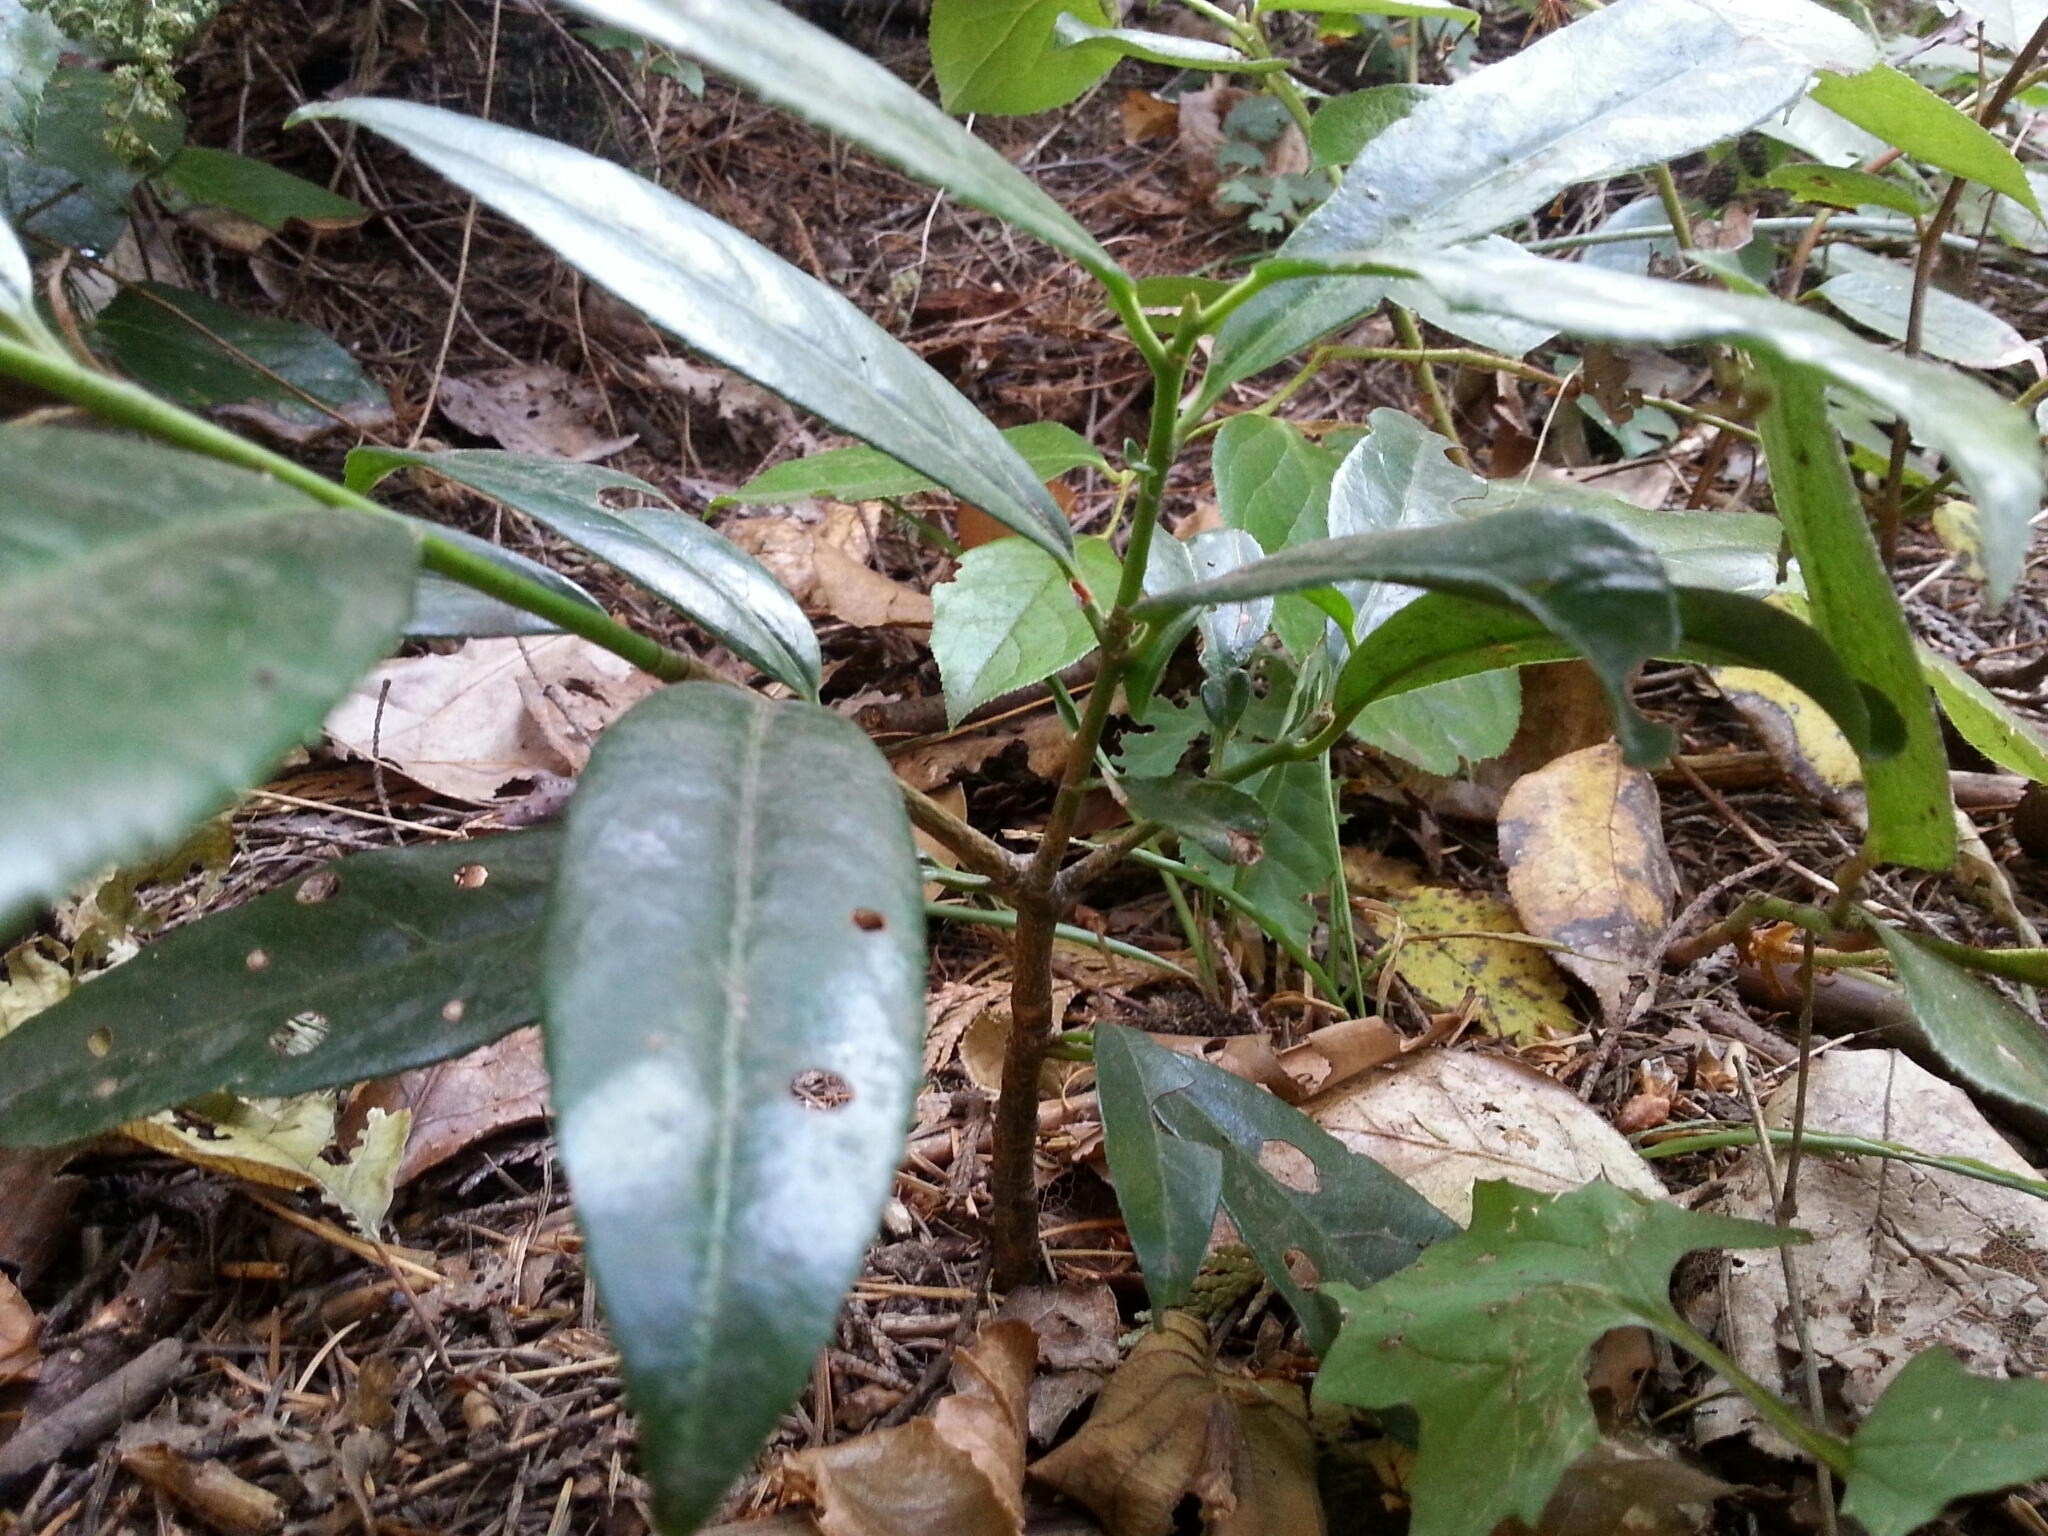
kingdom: Plantae
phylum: Tracheophyta
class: Magnoliopsida
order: Rosales
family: Rosaceae
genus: Prunus
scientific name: Prunus laurocerasus
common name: Cherry laurel
